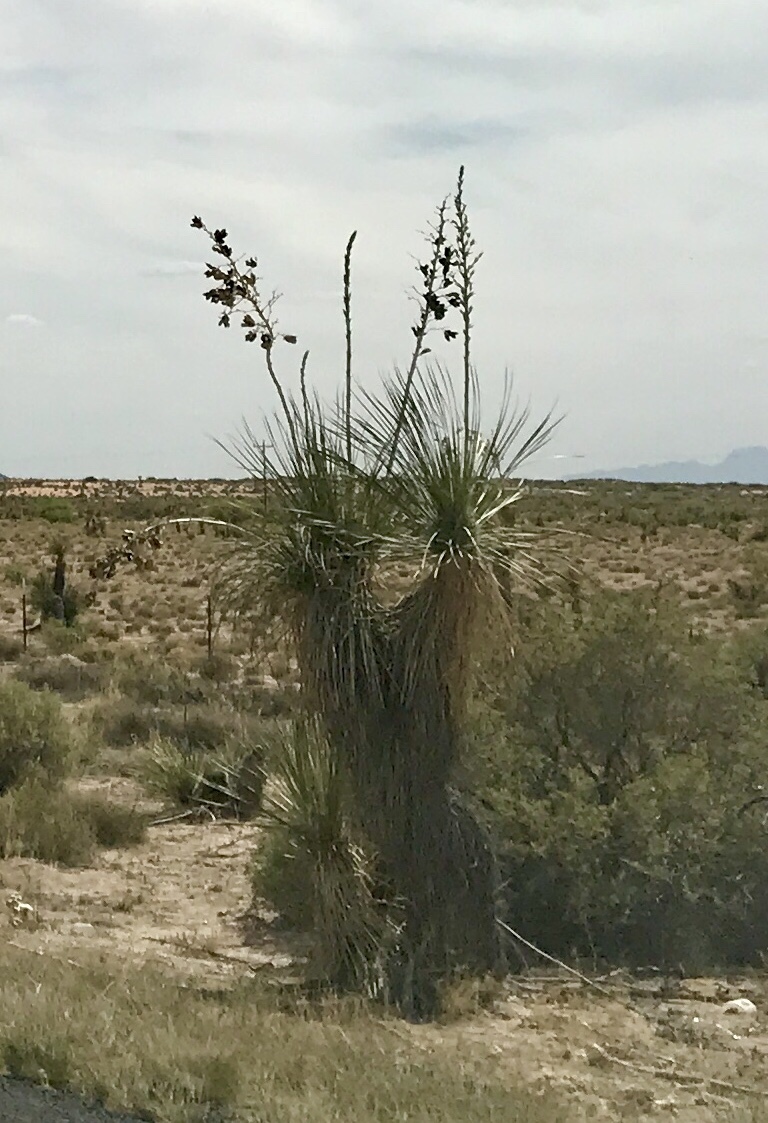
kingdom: Plantae
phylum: Tracheophyta
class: Liliopsida
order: Asparagales
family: Asparagaceae
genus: Yucca
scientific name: Yucca elata
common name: Palmella
